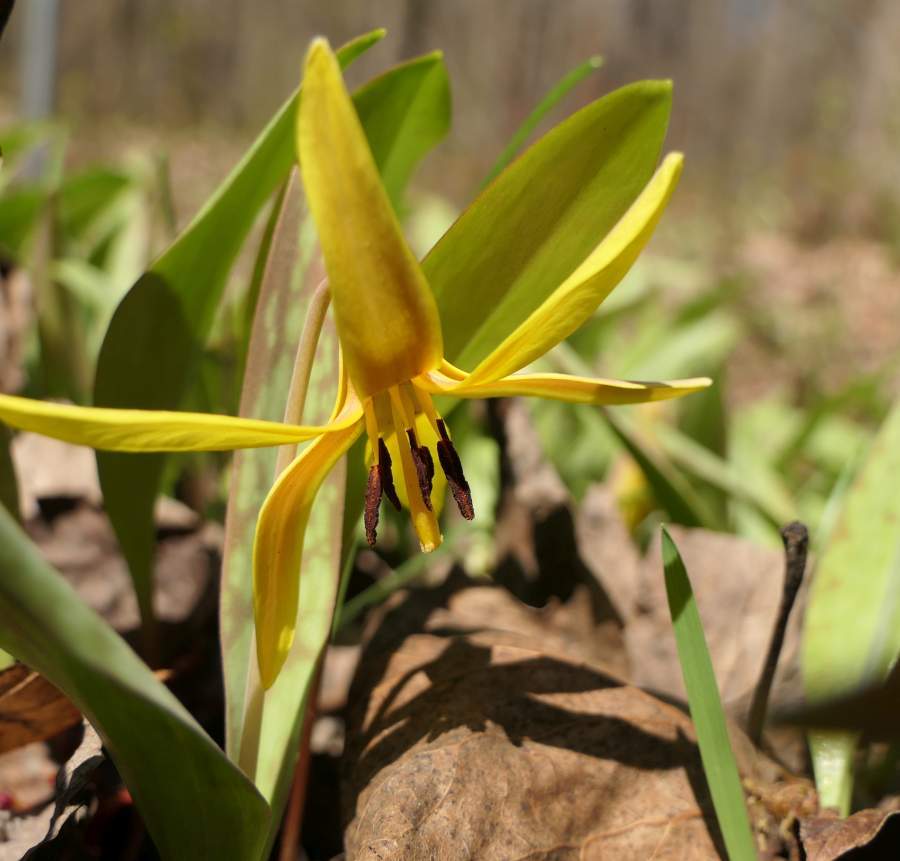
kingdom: Plantae
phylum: Tracheophyta
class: Liliopsida
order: Liliales
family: Liliaceae
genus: Erythronium
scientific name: Erythronium americanum
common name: Yellow adder's-tongue
